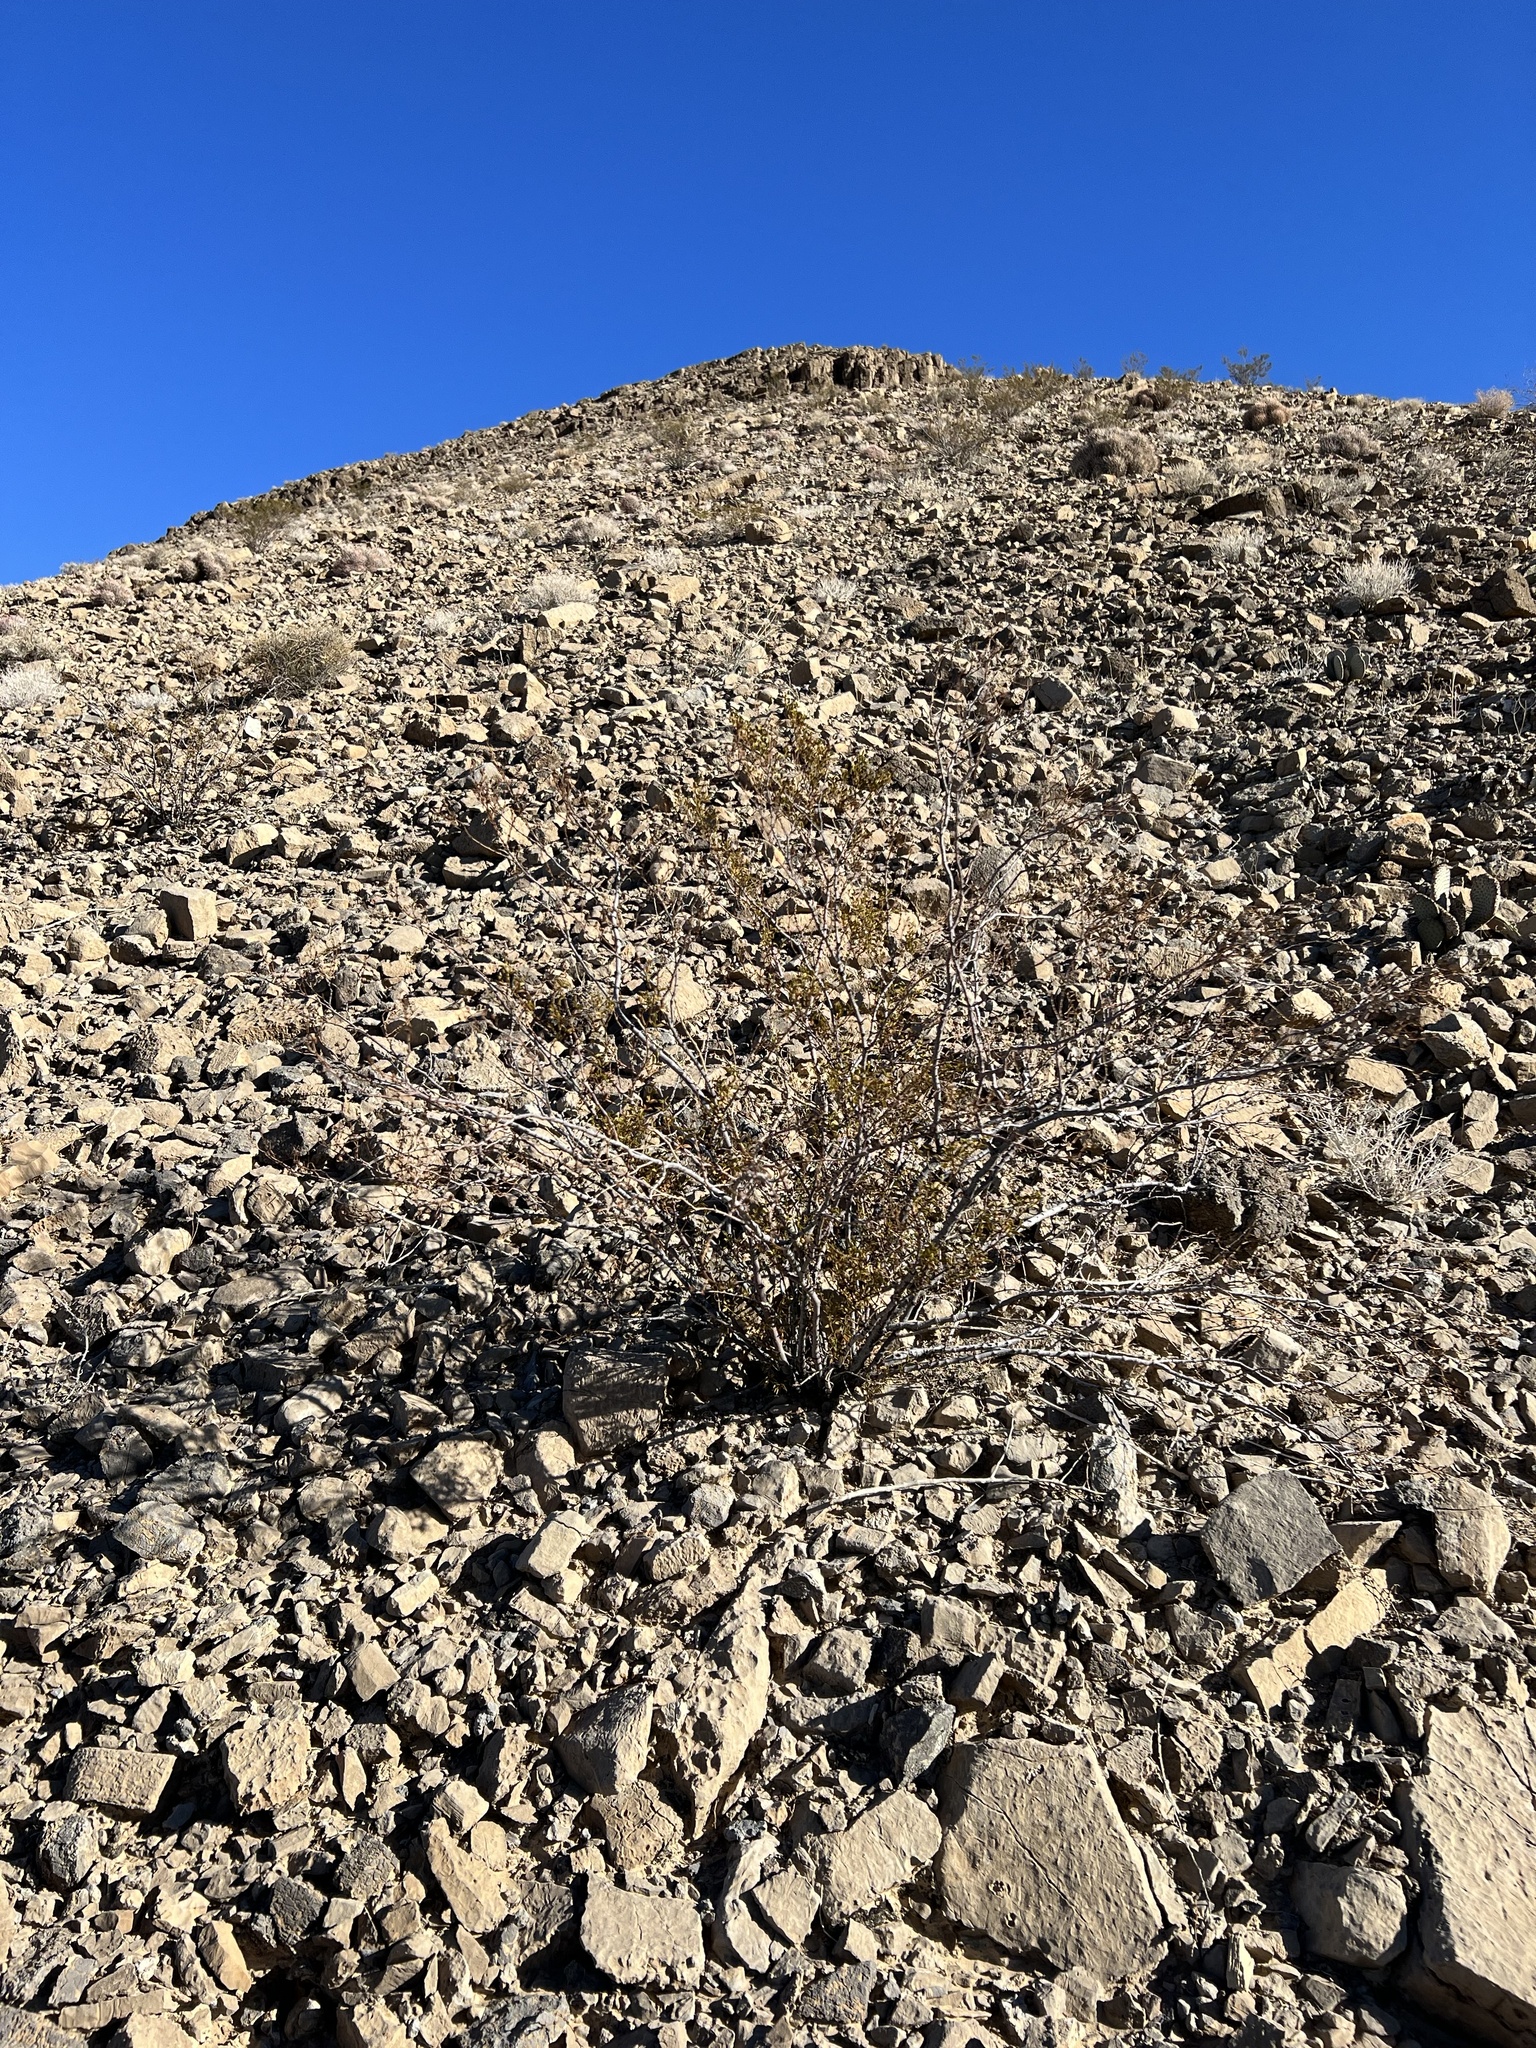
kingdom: Plantae
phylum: Tracheophyta
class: Magnoliopsida
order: Zygophyllales
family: Zygophyllaceae
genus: Larrea
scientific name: Larrea tridentata
